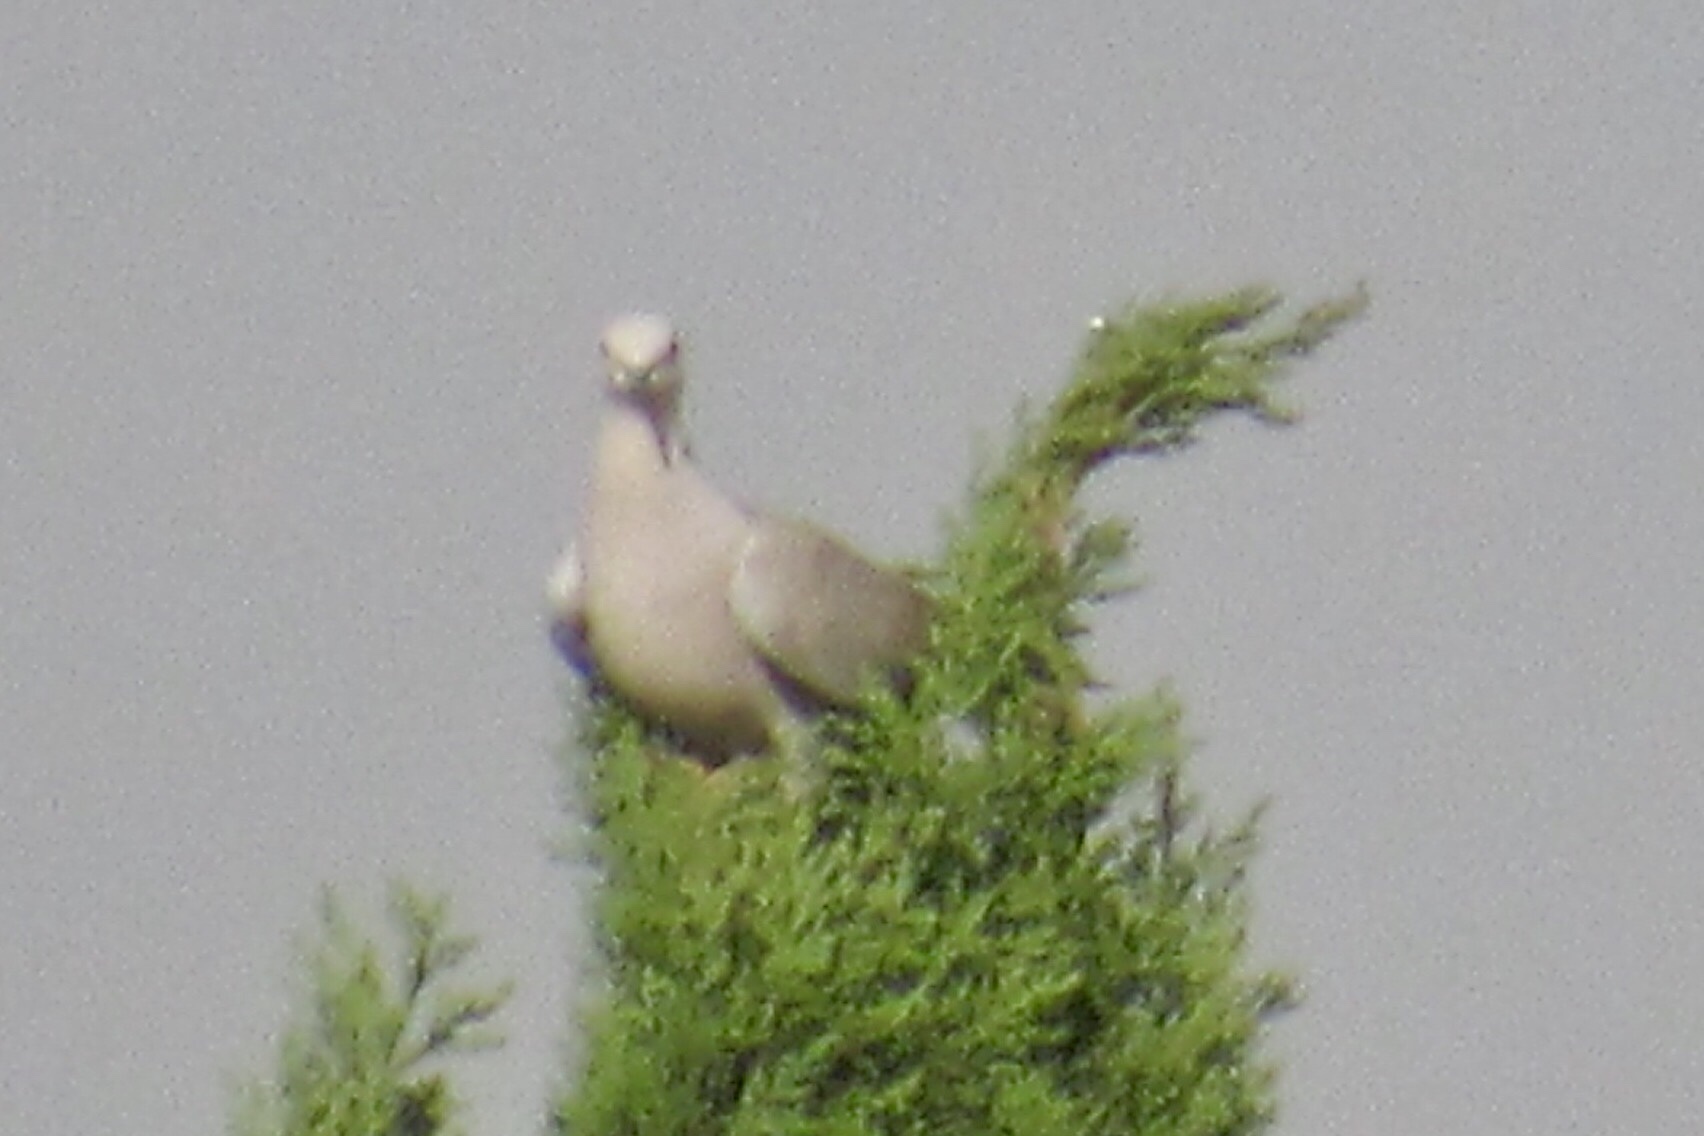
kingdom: Animalia
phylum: Chordata
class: Aves
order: Columbiformes
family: Columbidae
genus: Streptopelia
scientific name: Streptopelia decaocto
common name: Eurasian collared dove
